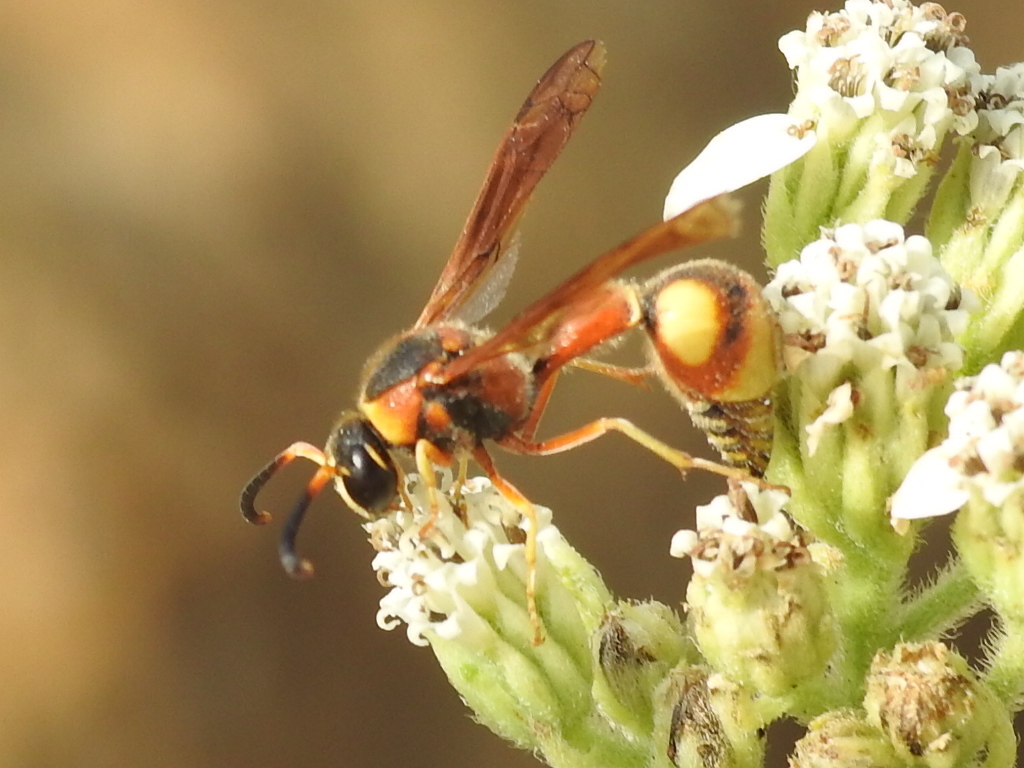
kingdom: Animalia
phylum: Arthropoda
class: Insecta
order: Hymenoptera
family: Vespidae
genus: Eumenes
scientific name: Eumenes bollii
